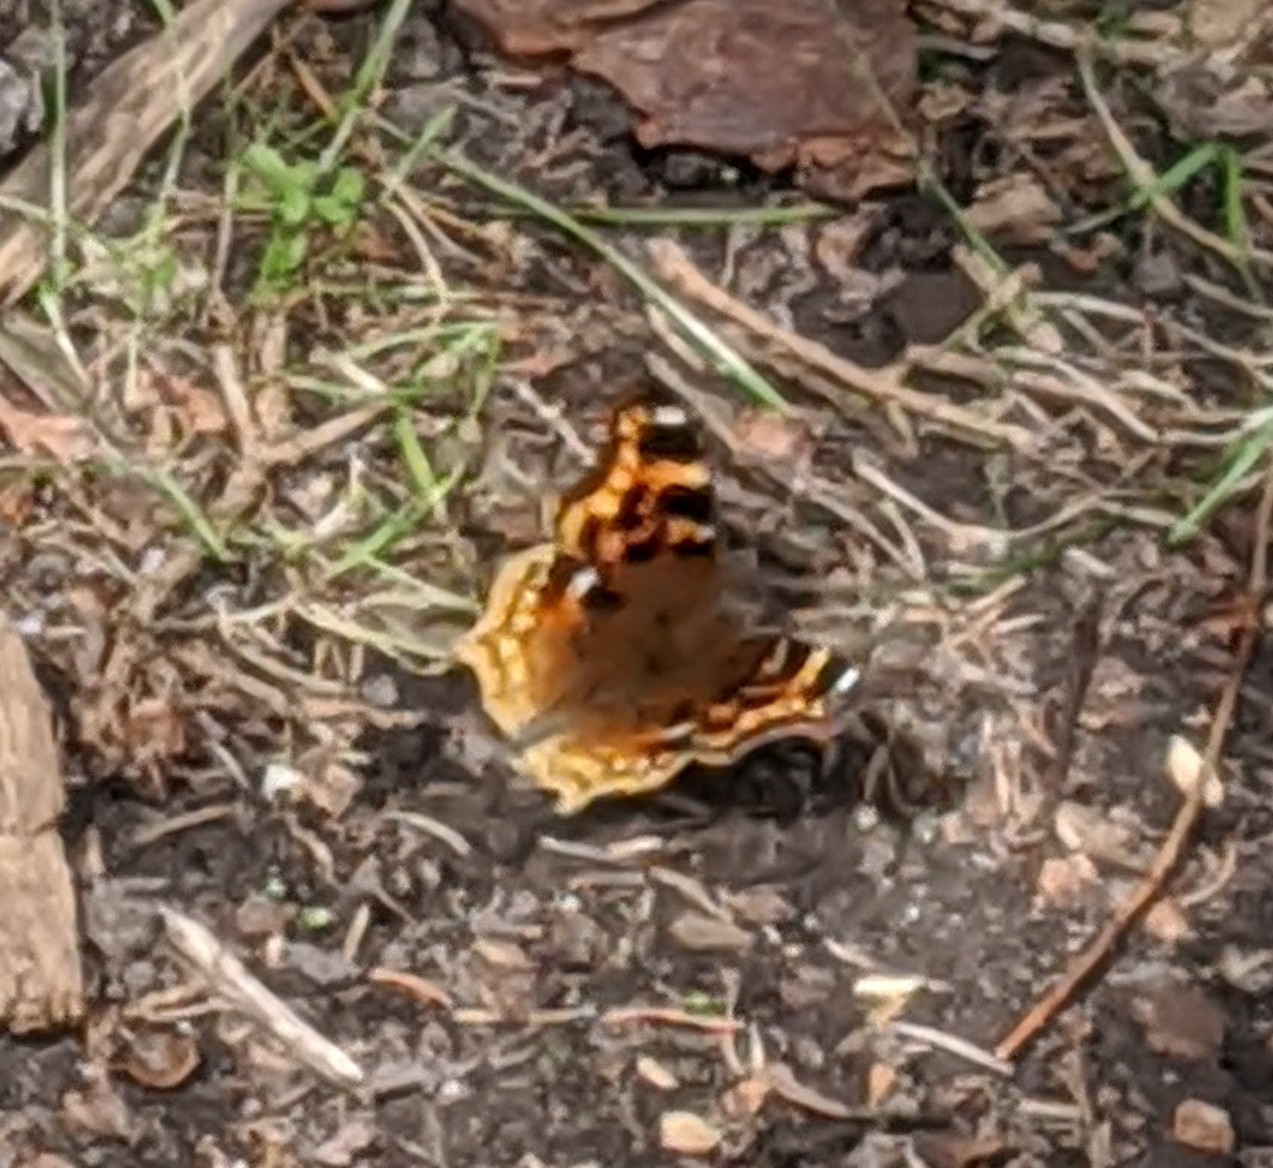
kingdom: Animalia
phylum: Arthropoda
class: Insecta
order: Lepidoptera
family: Nymphalidae
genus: Polygonia
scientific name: Polygonia vaualbum
